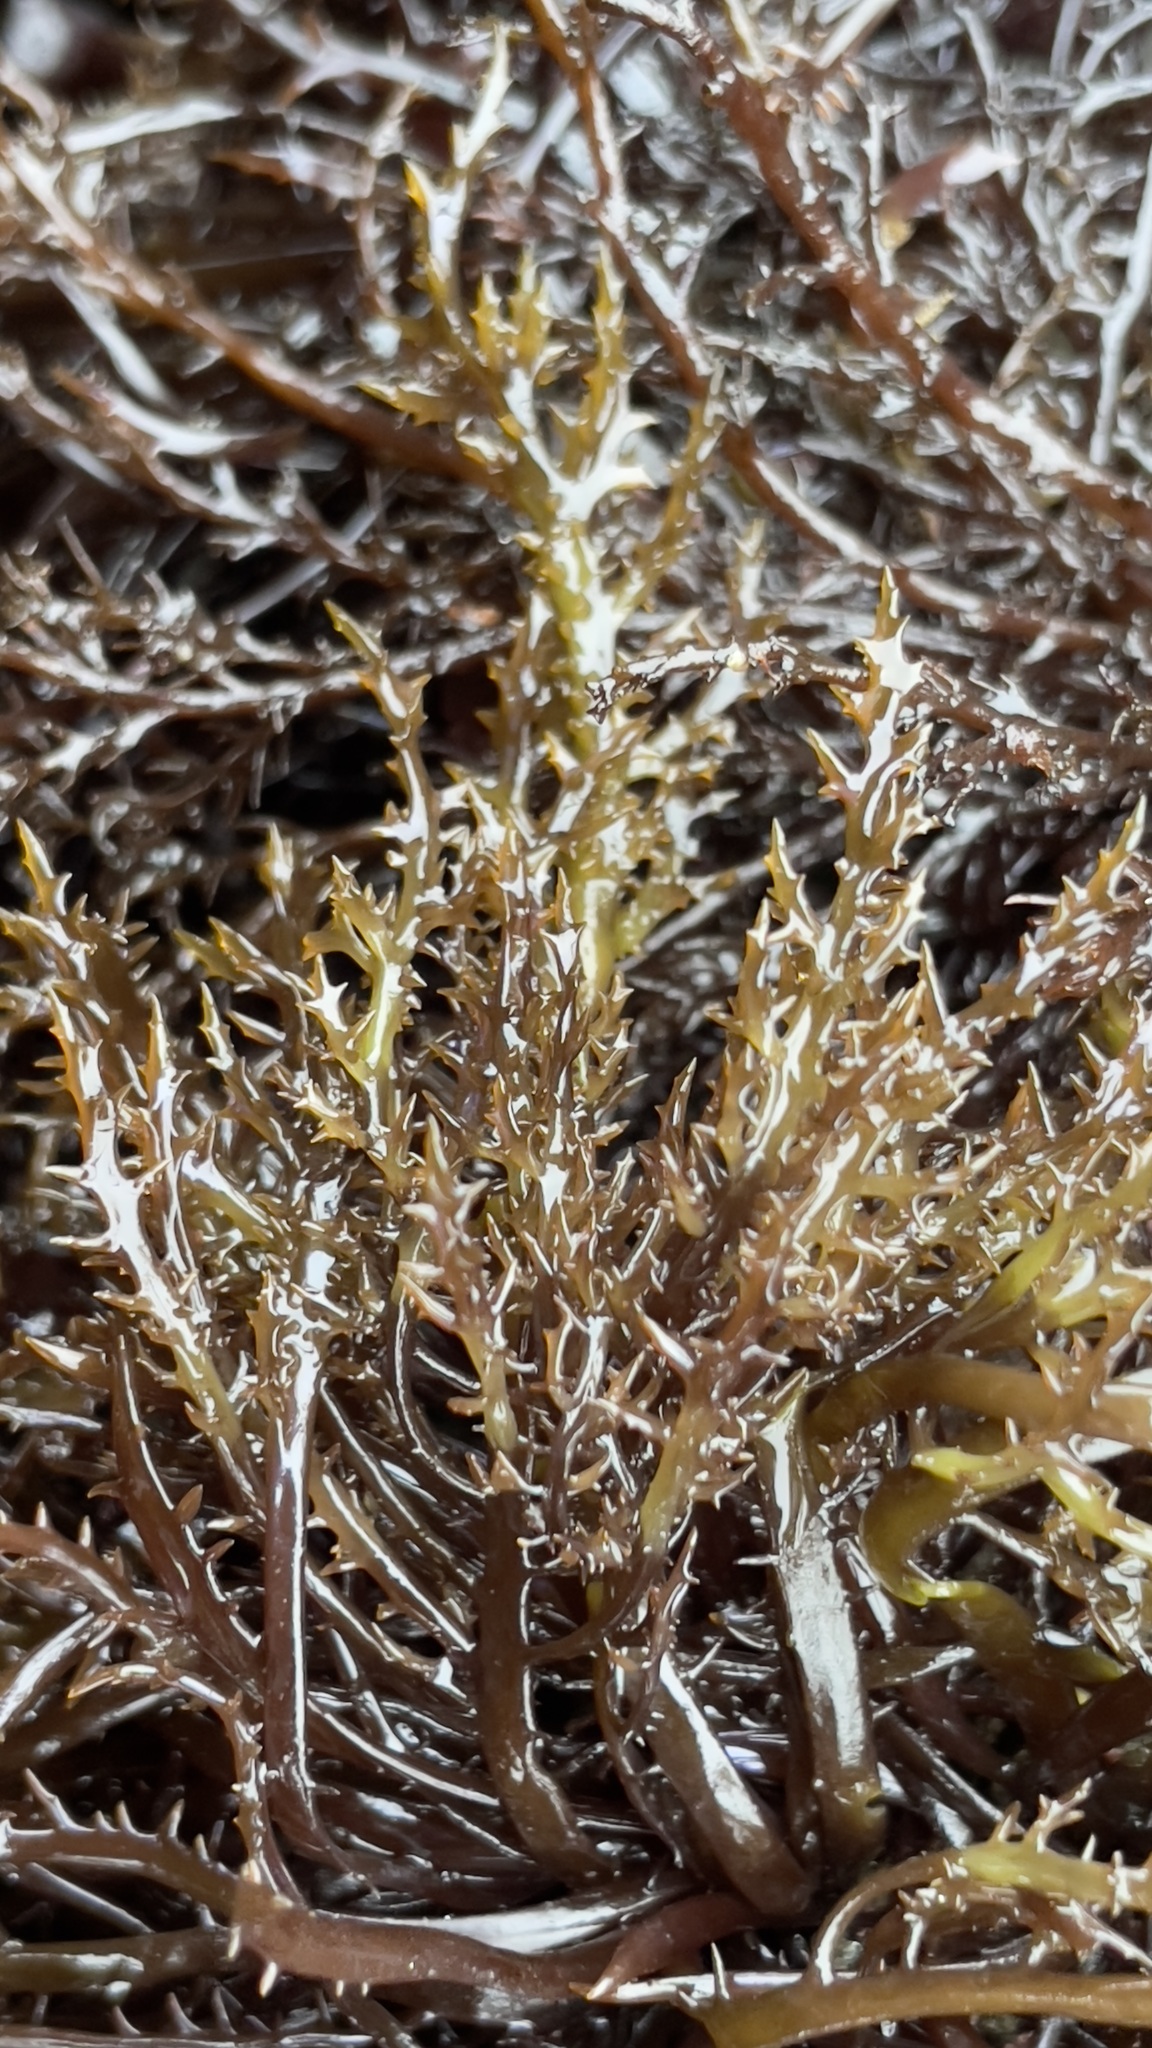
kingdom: Plantae
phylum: Rhodophyta
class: Florideophyceae
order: Gigartinales
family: Gigartinaceae
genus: Chondracanthus
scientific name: Chondracanthus canaliculatus
